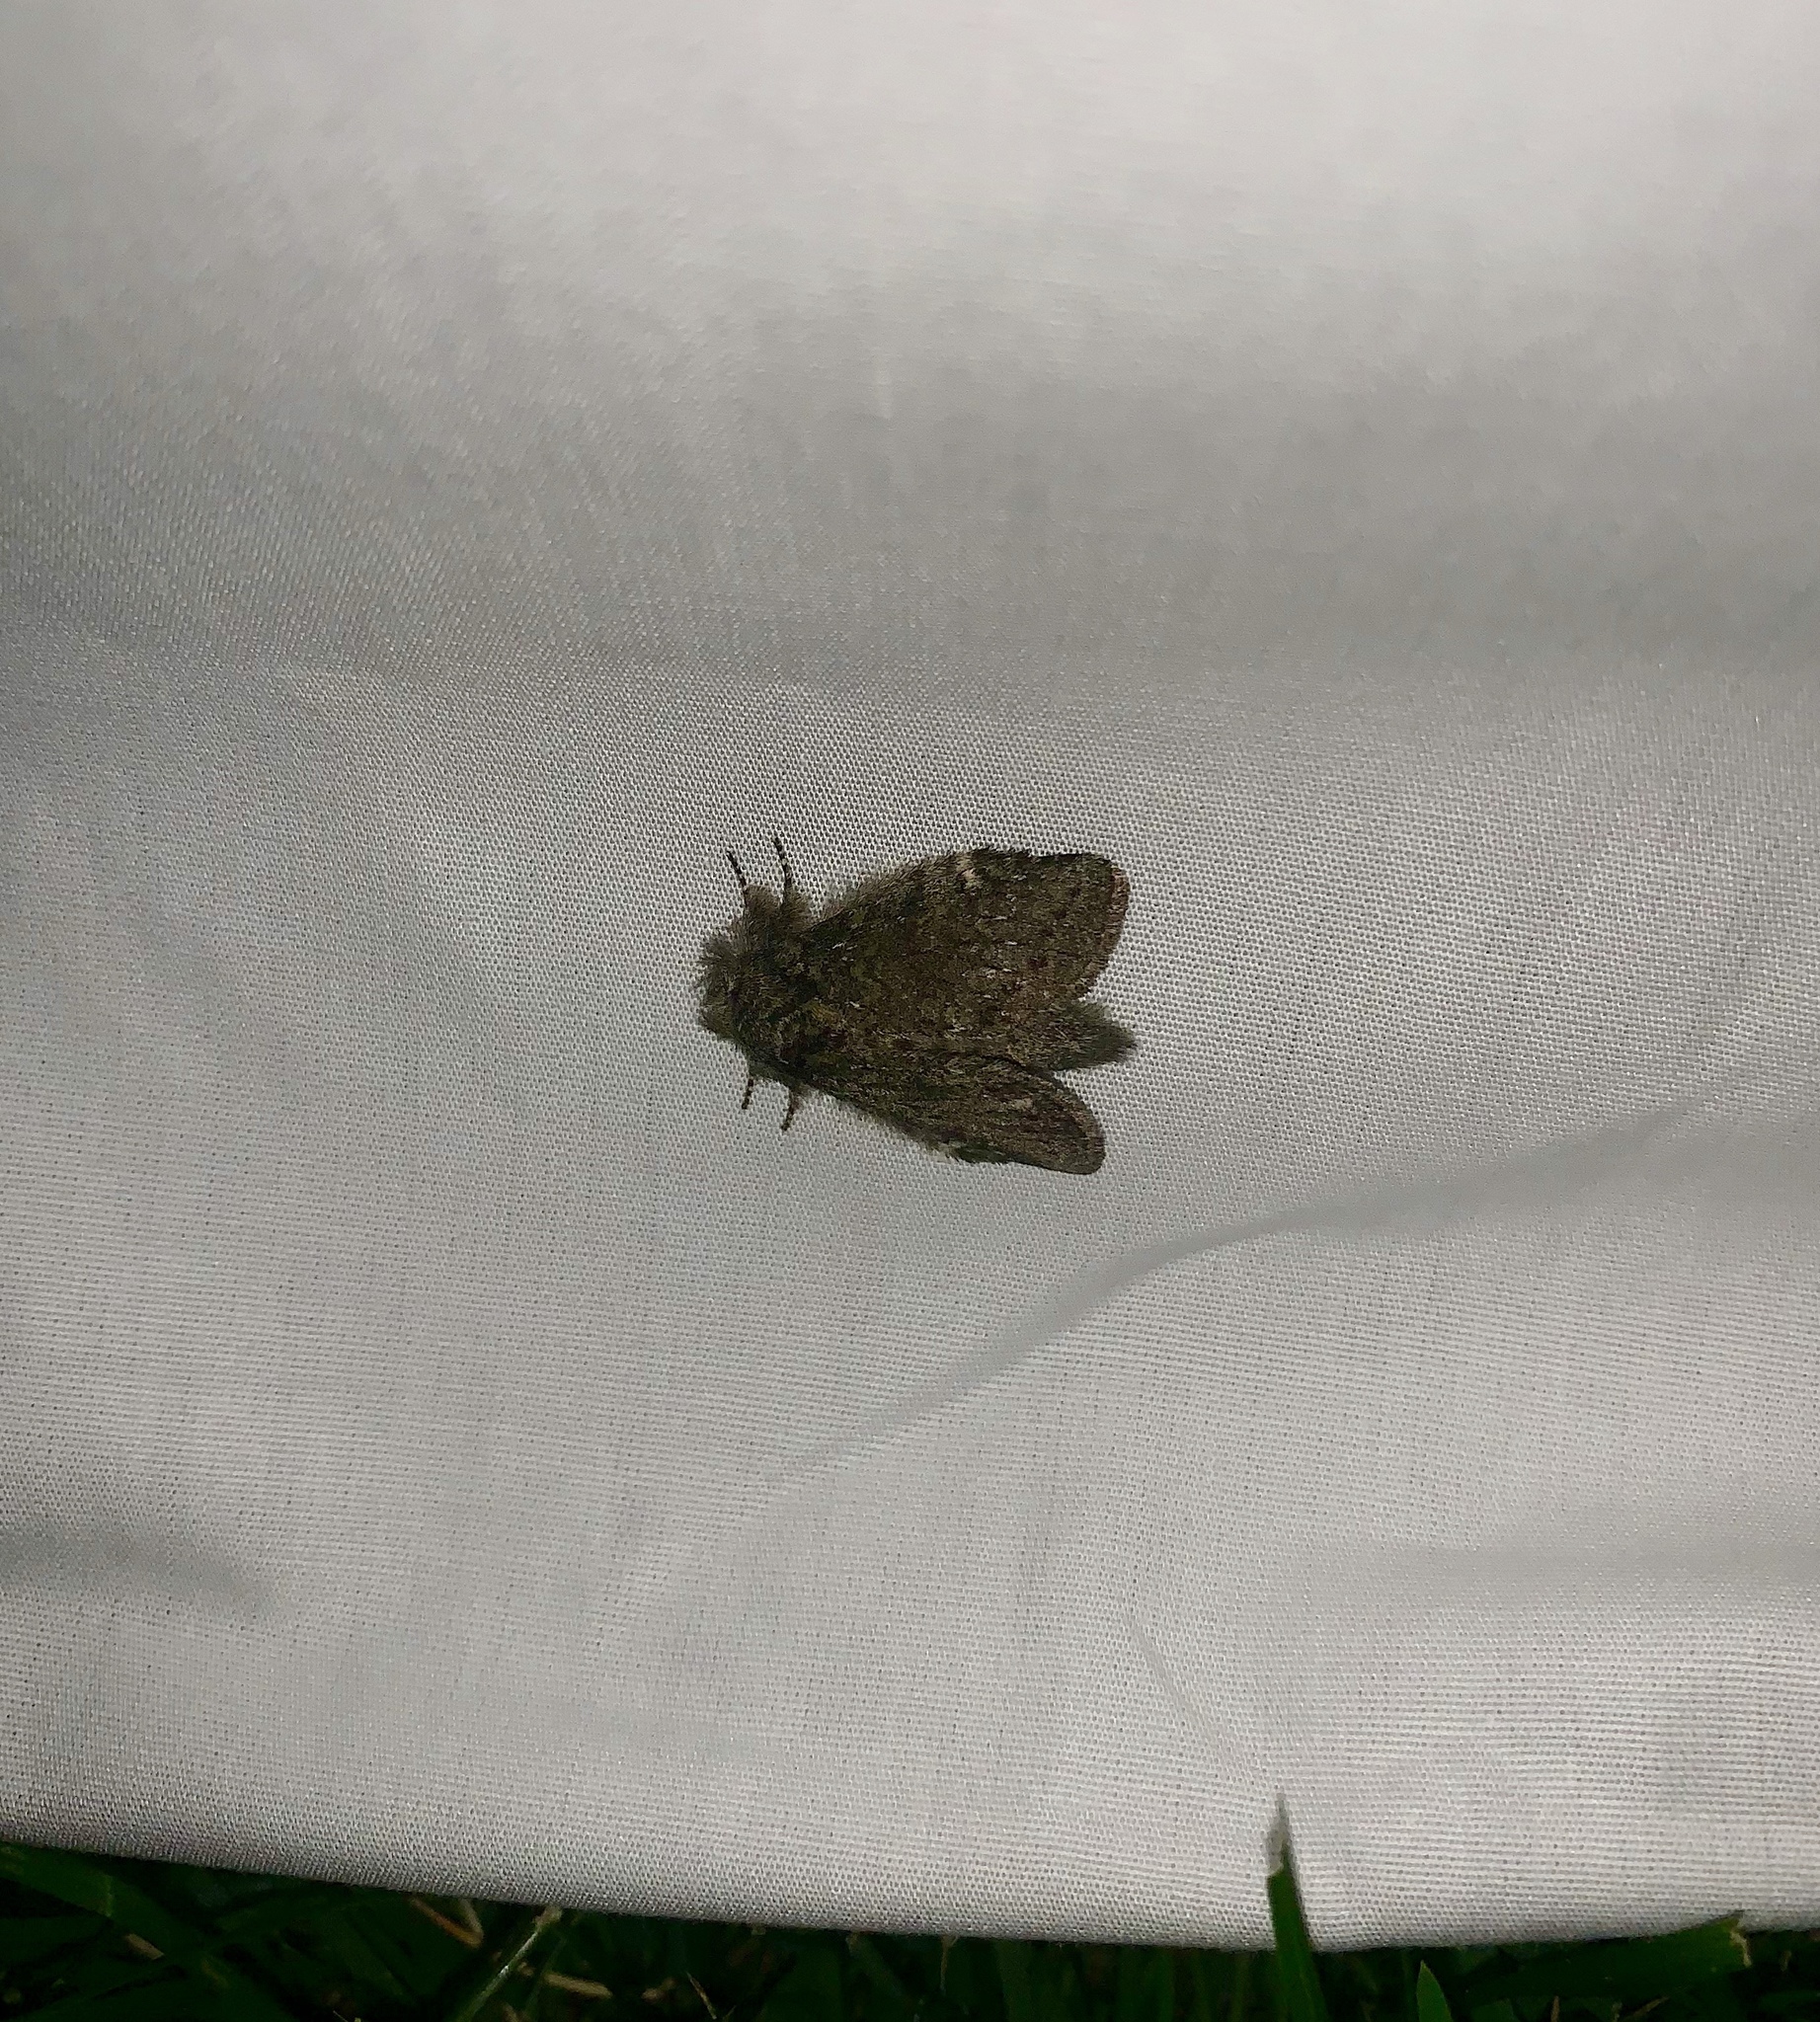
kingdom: Animalia
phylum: Arthropoda
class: Insecta
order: Lepidoptera
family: Notodontidae
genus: Disphragis
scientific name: Disphragis Cecrita guttivitta
